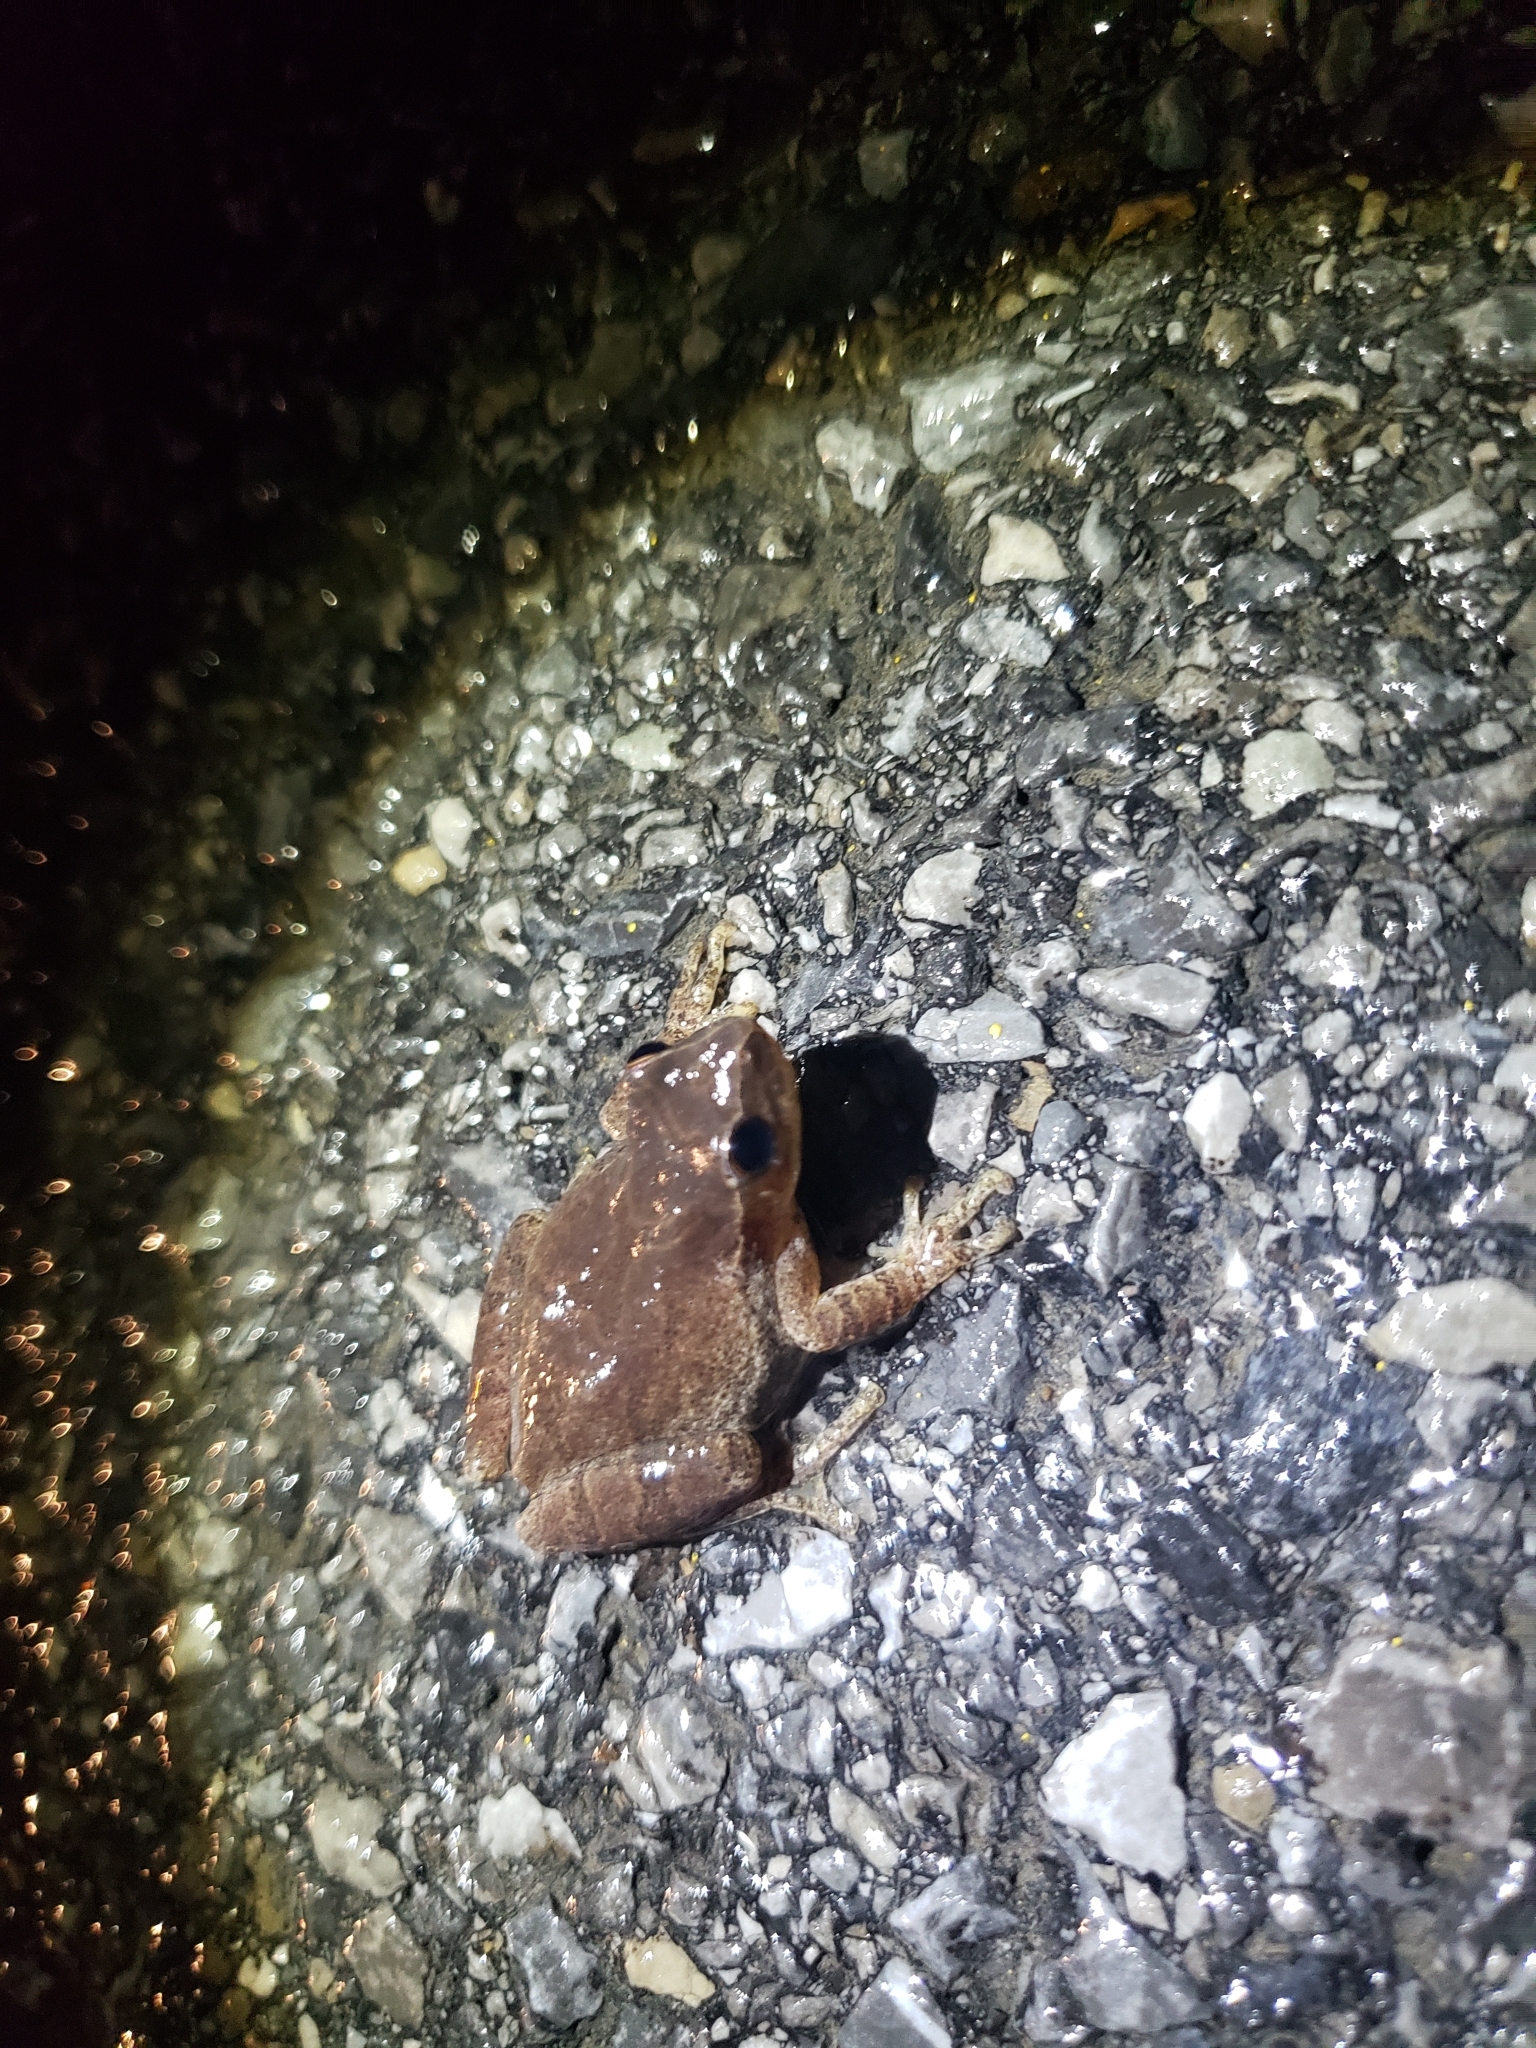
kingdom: Animalia
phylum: Chordata
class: Amphibia
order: Anura
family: Hylidae
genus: Pseudacris
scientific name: Pseudacris crucifer
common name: Spring peeper
